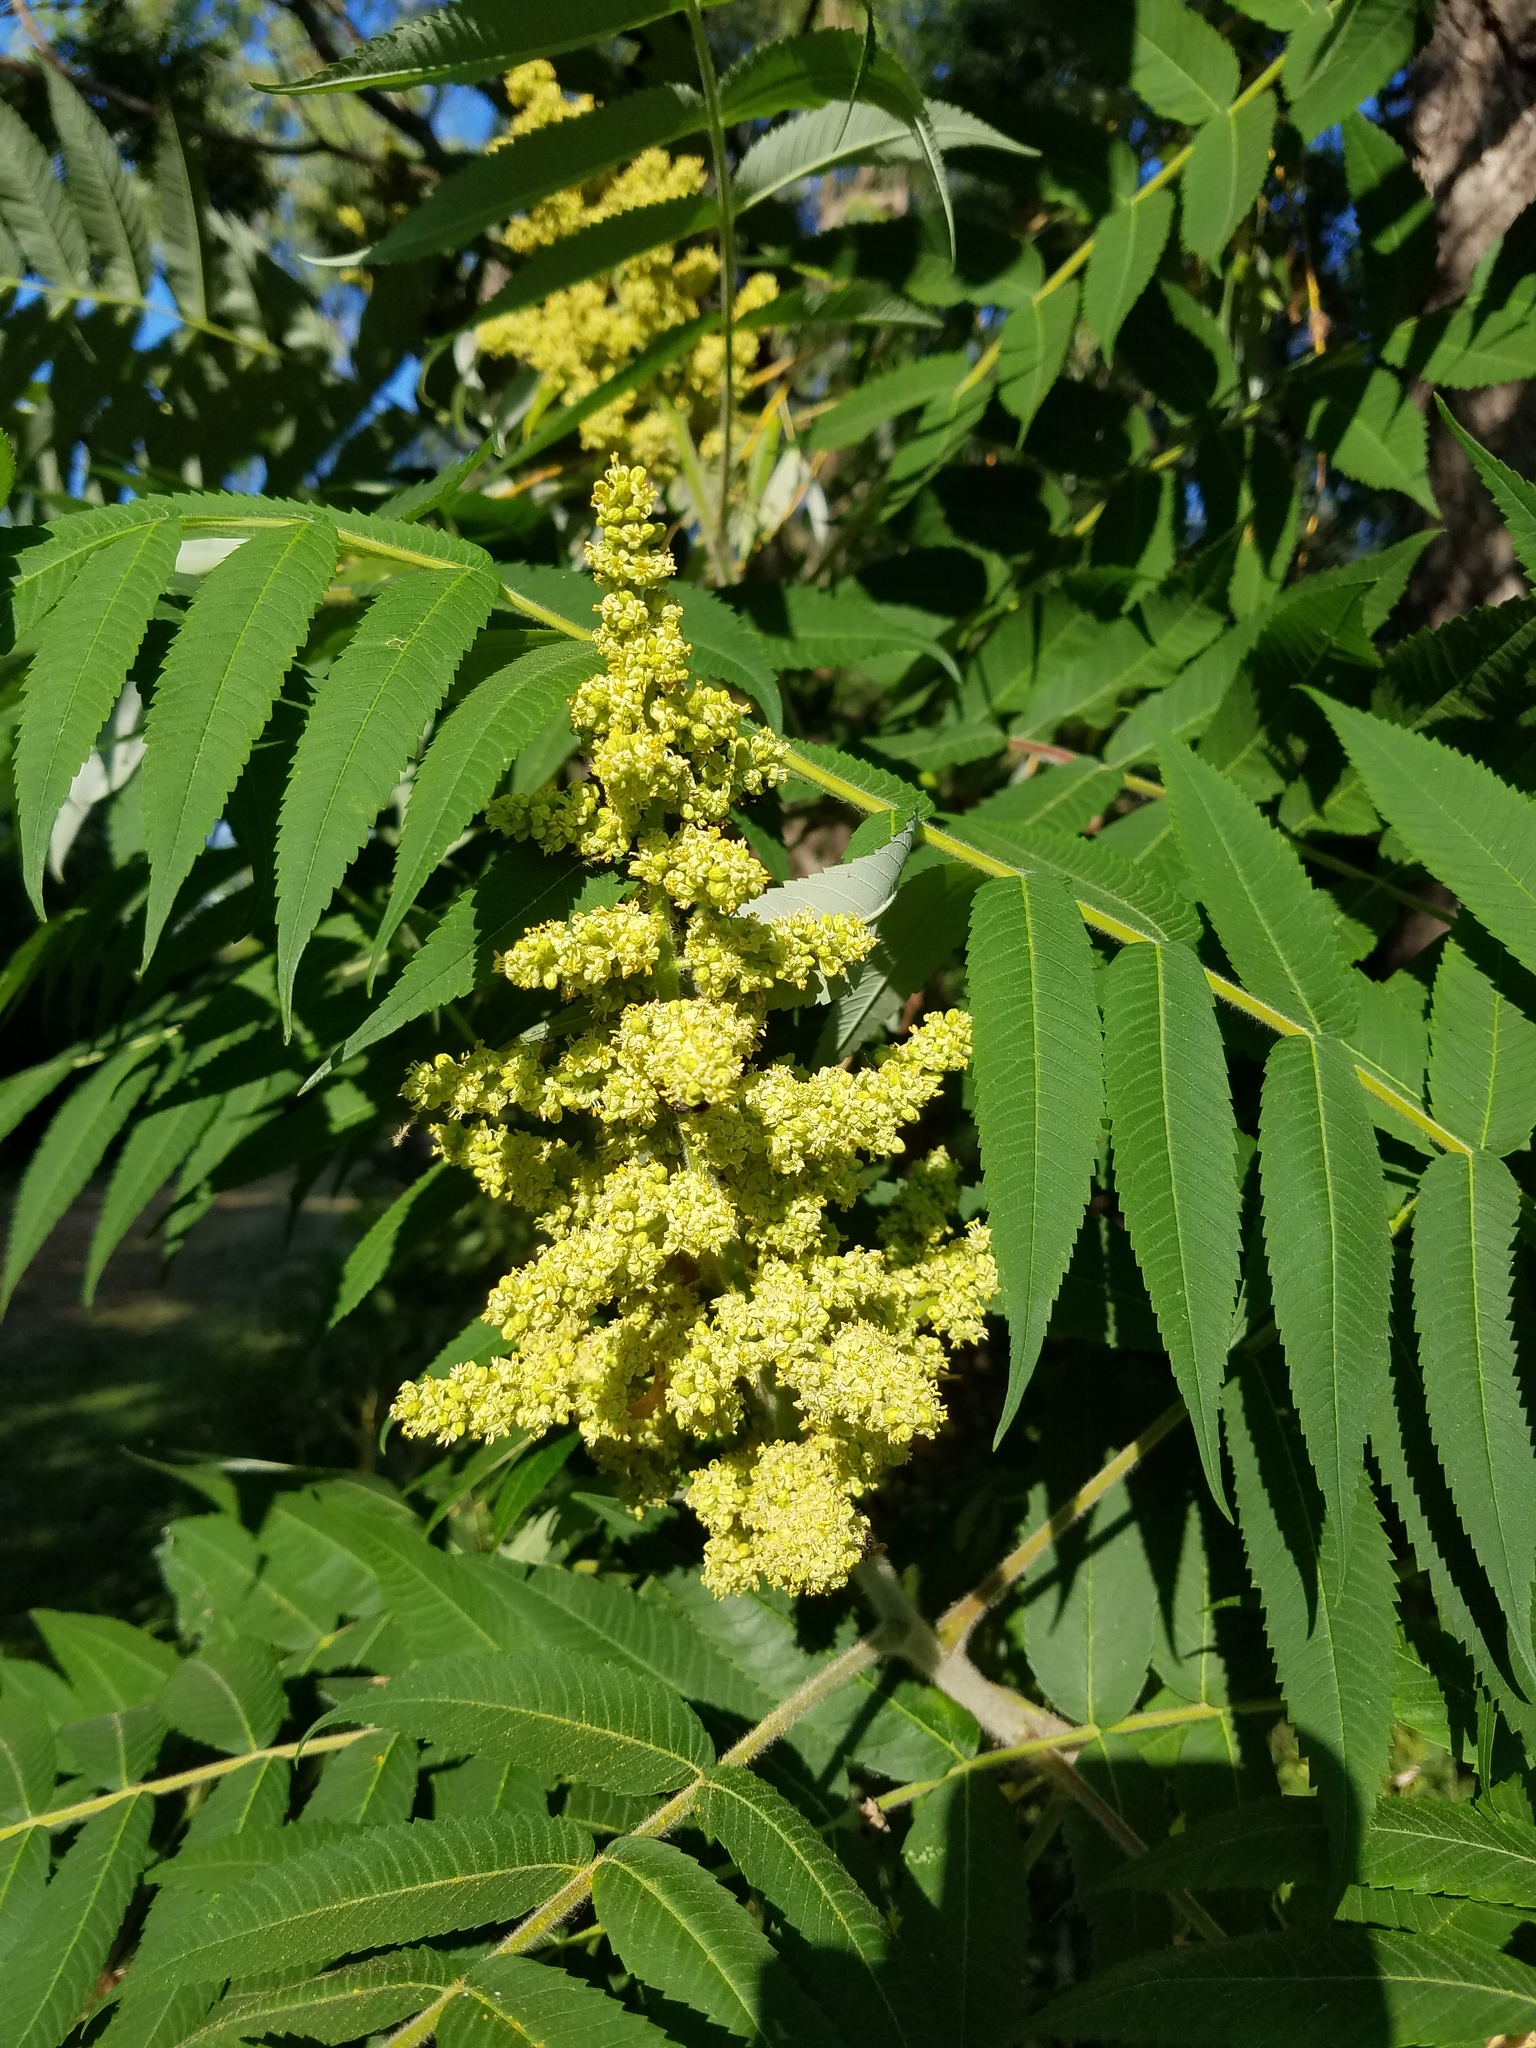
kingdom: Plantae
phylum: Tracheophyta
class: Magnoliopsida
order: Sapindales
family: Anacardiaceae
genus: Rhus
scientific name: Rhus typhina
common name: Staghorn sumac
